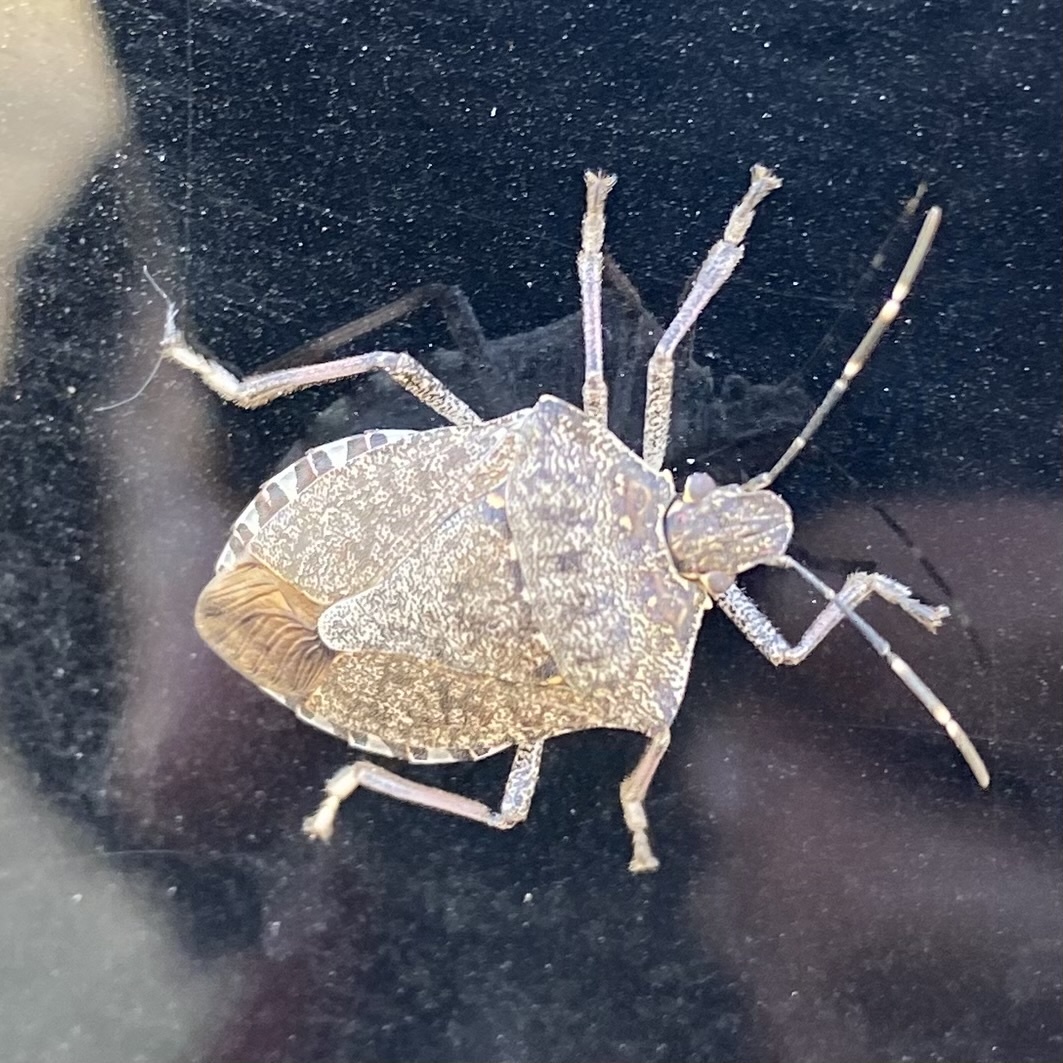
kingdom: Animalia
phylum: Arthropoda
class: Insecta
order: Hemiptera
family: Pentatomidae
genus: Halyomorpha
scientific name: Halyomorpha halys
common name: Brown marmorated stink bug
